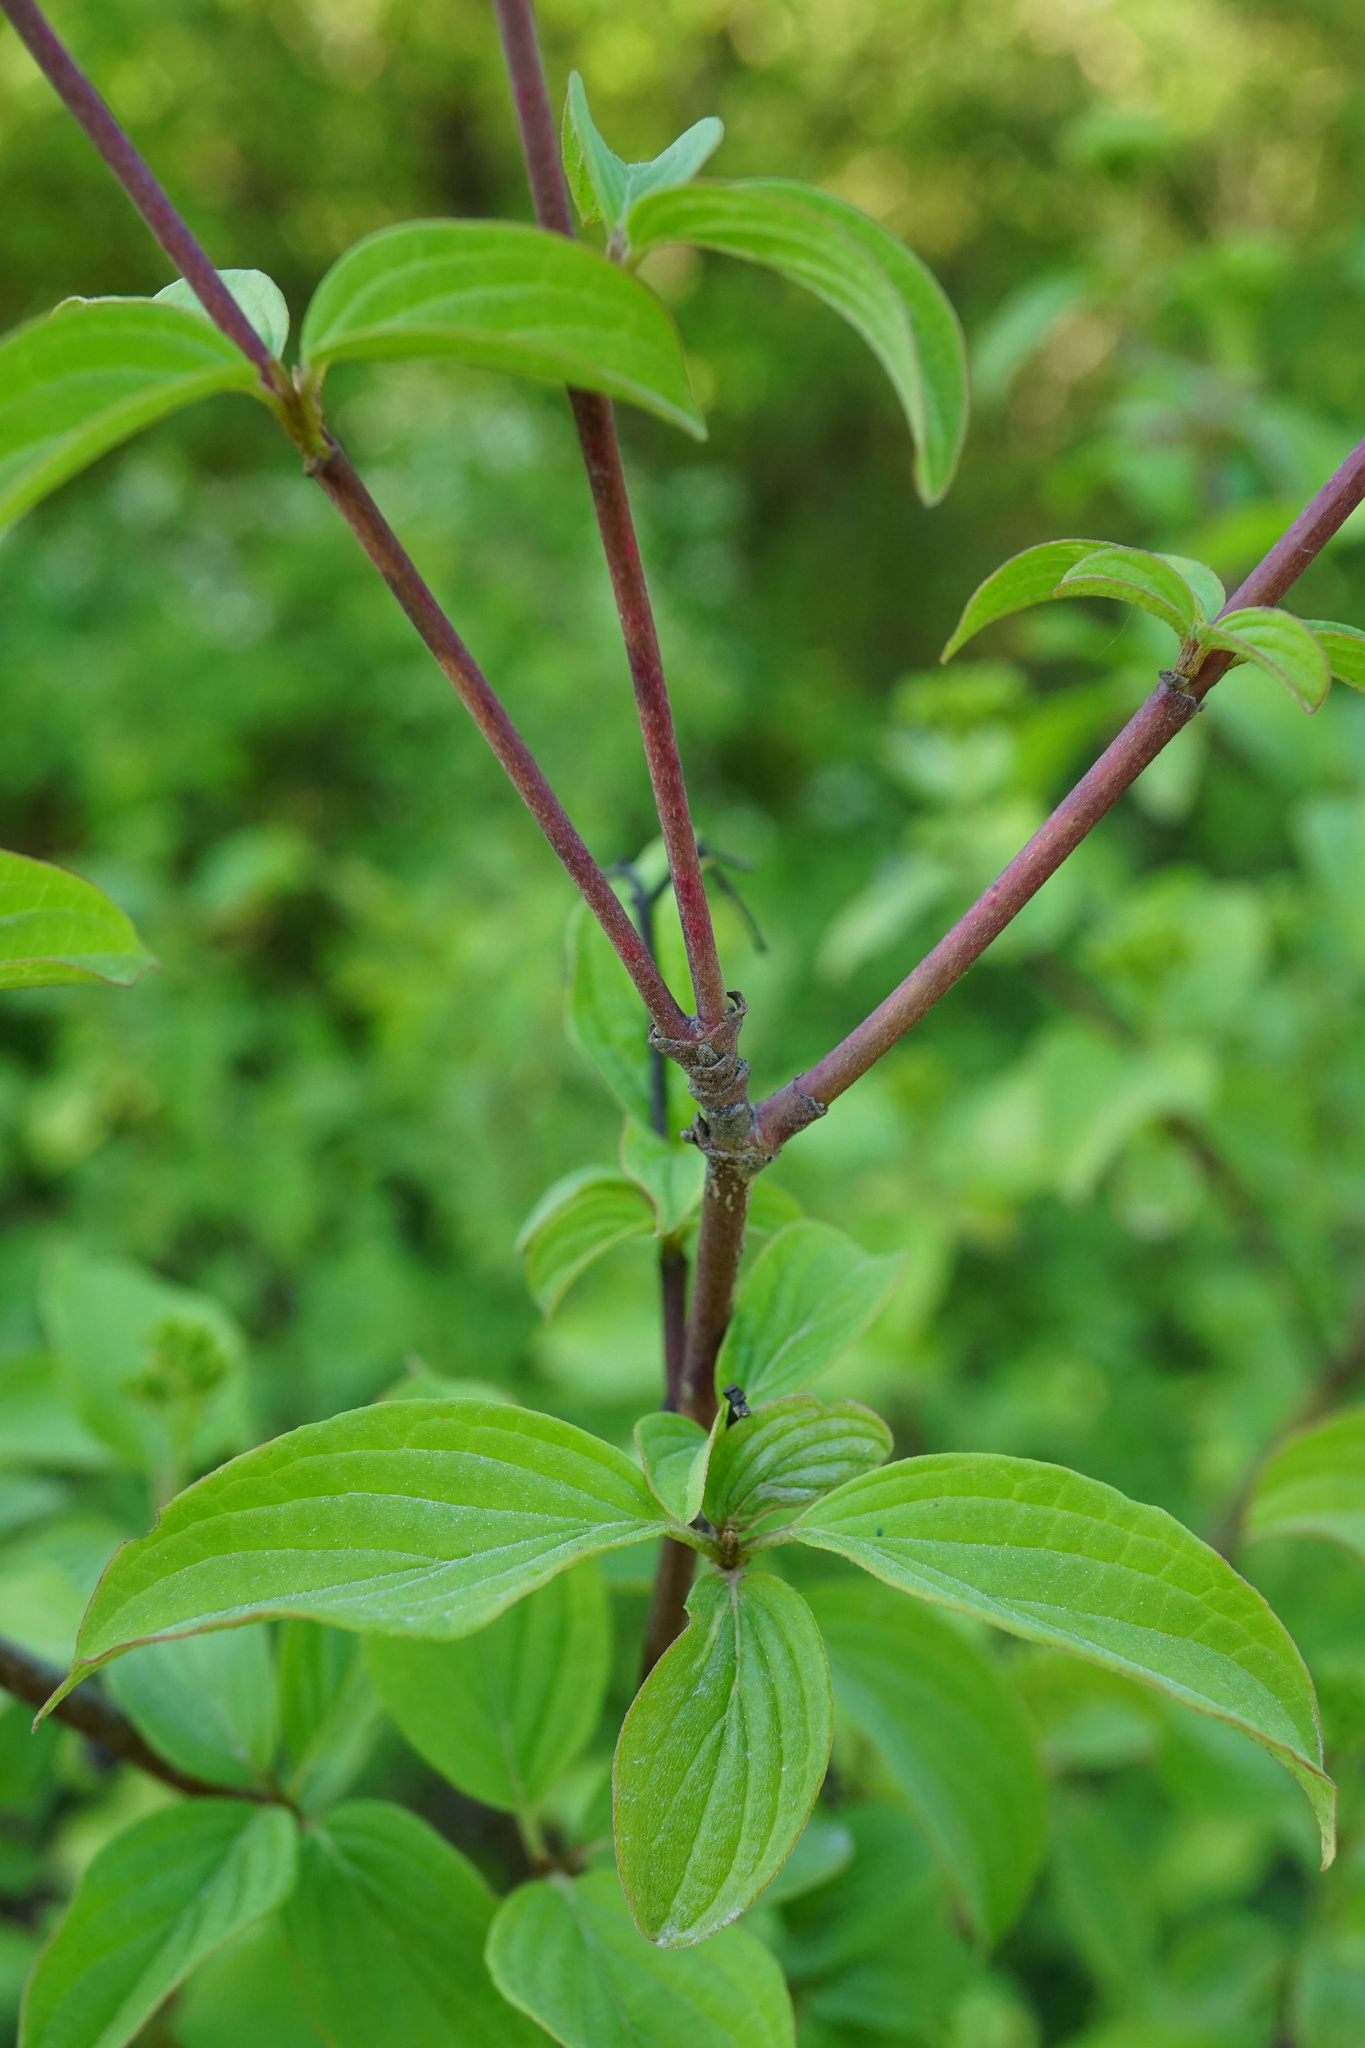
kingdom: Plantae
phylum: Tracheophyta
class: Magnoliopsida
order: Cornales
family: Cornaceae
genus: Cornus
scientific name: Cornus sanguinea
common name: Dogwood
